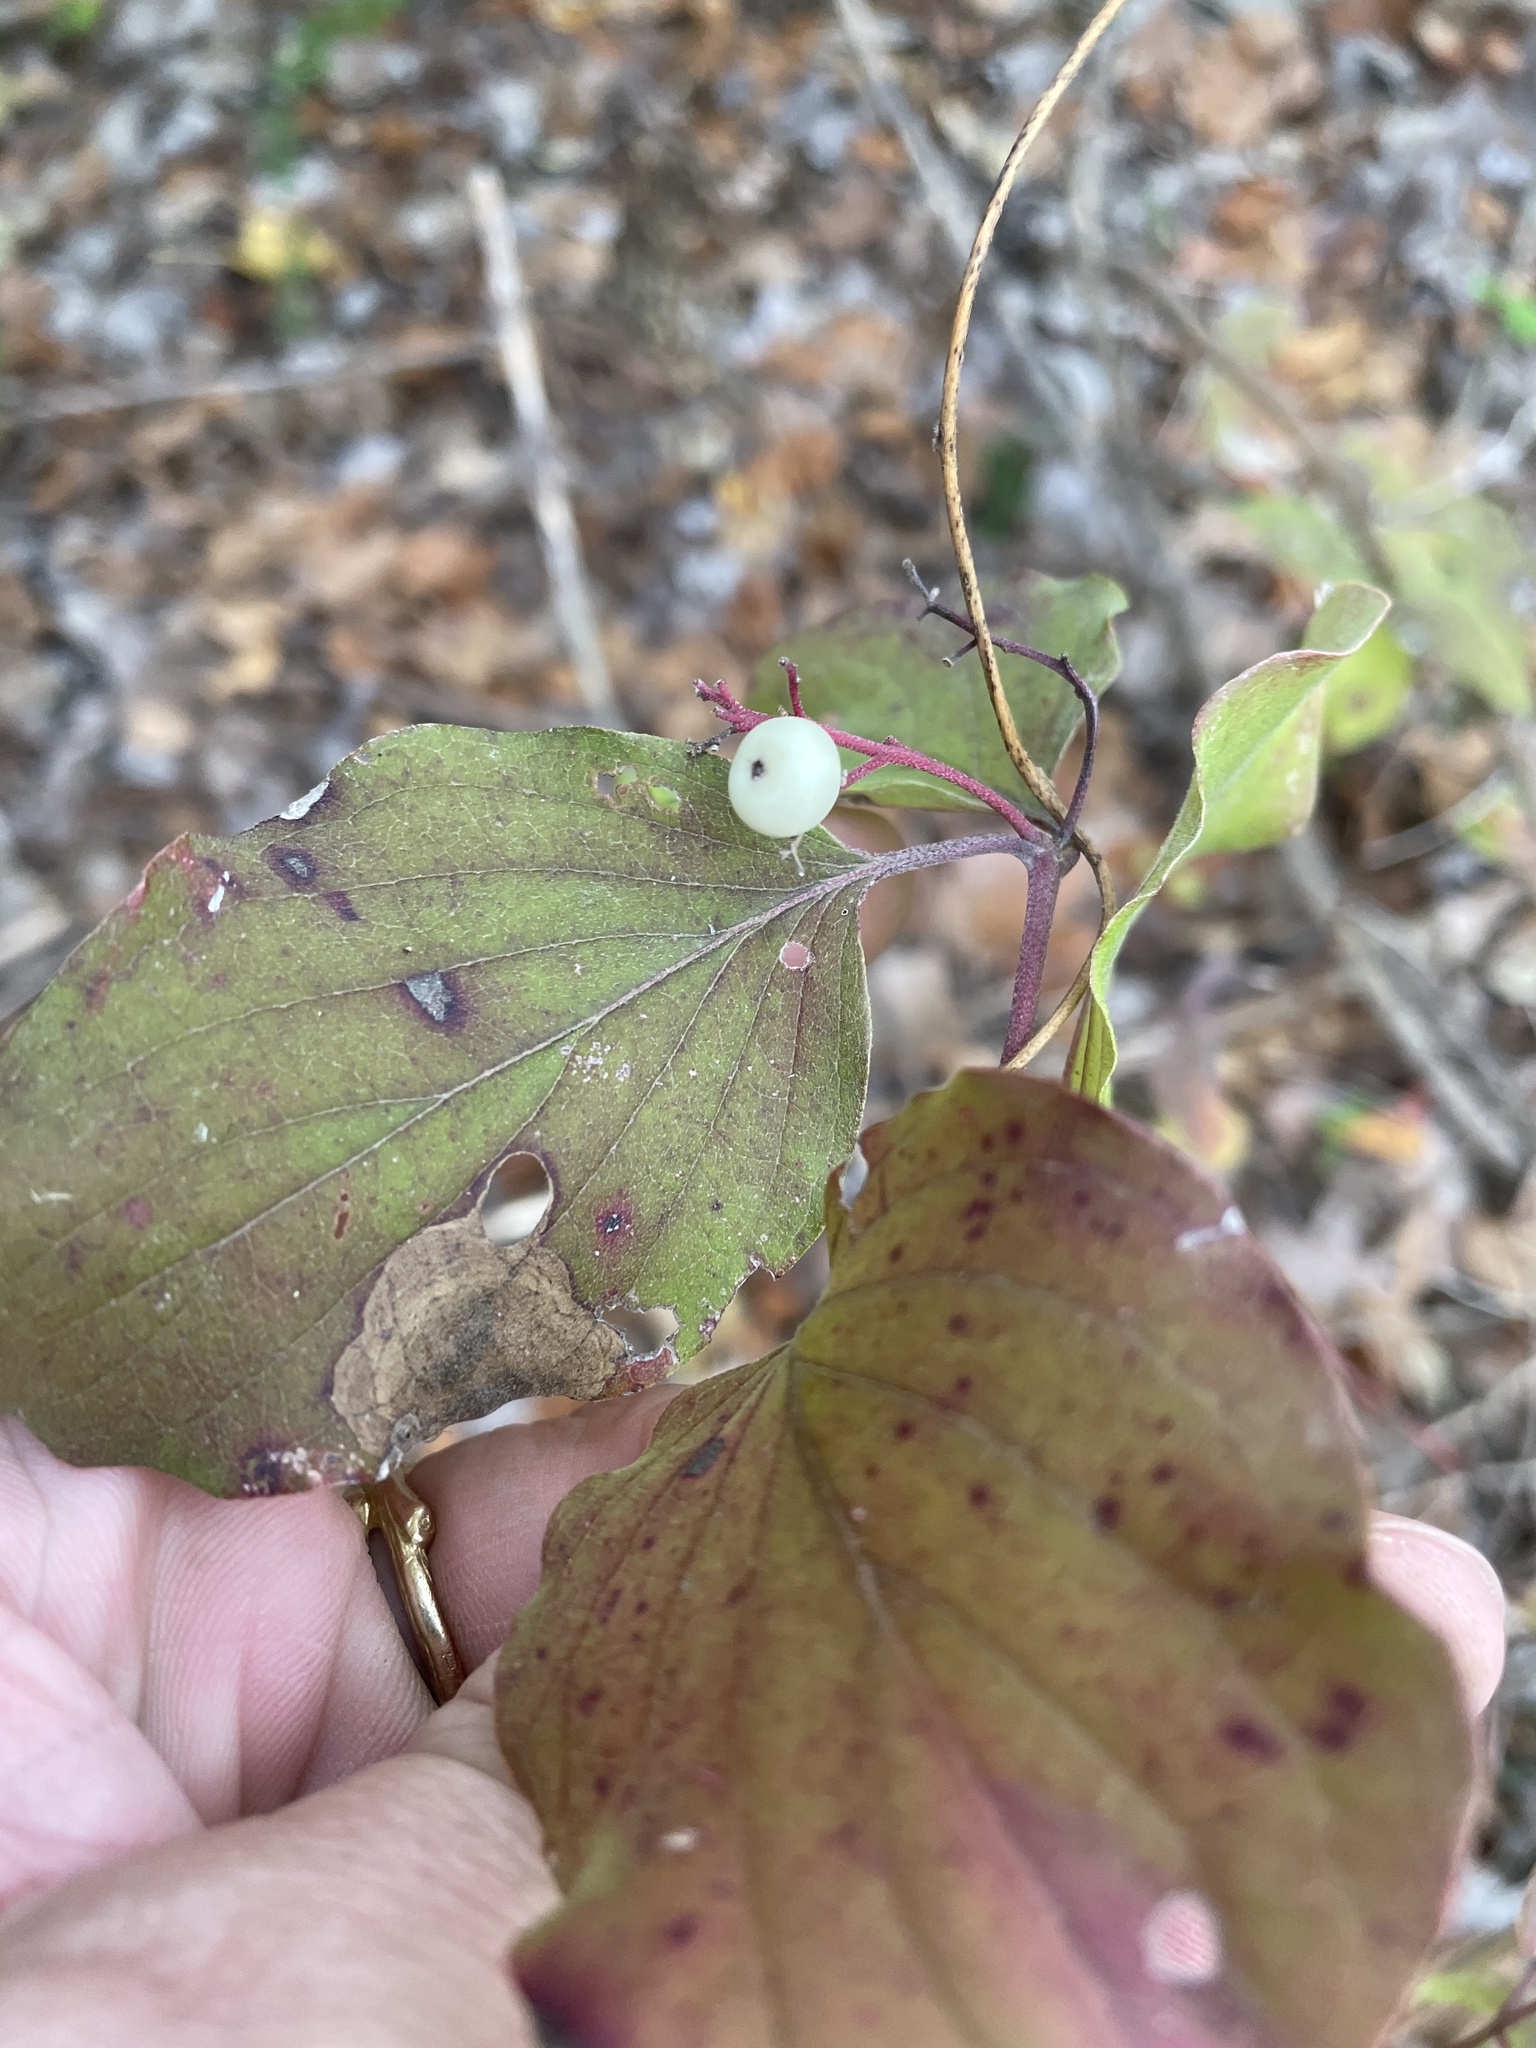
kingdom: Plantae
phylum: Tracheophyta
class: Magnoliopsida
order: Cornales
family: Cornaceae
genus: Cornus
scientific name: Cornus drummondii
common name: Rough-leaf dogwood
